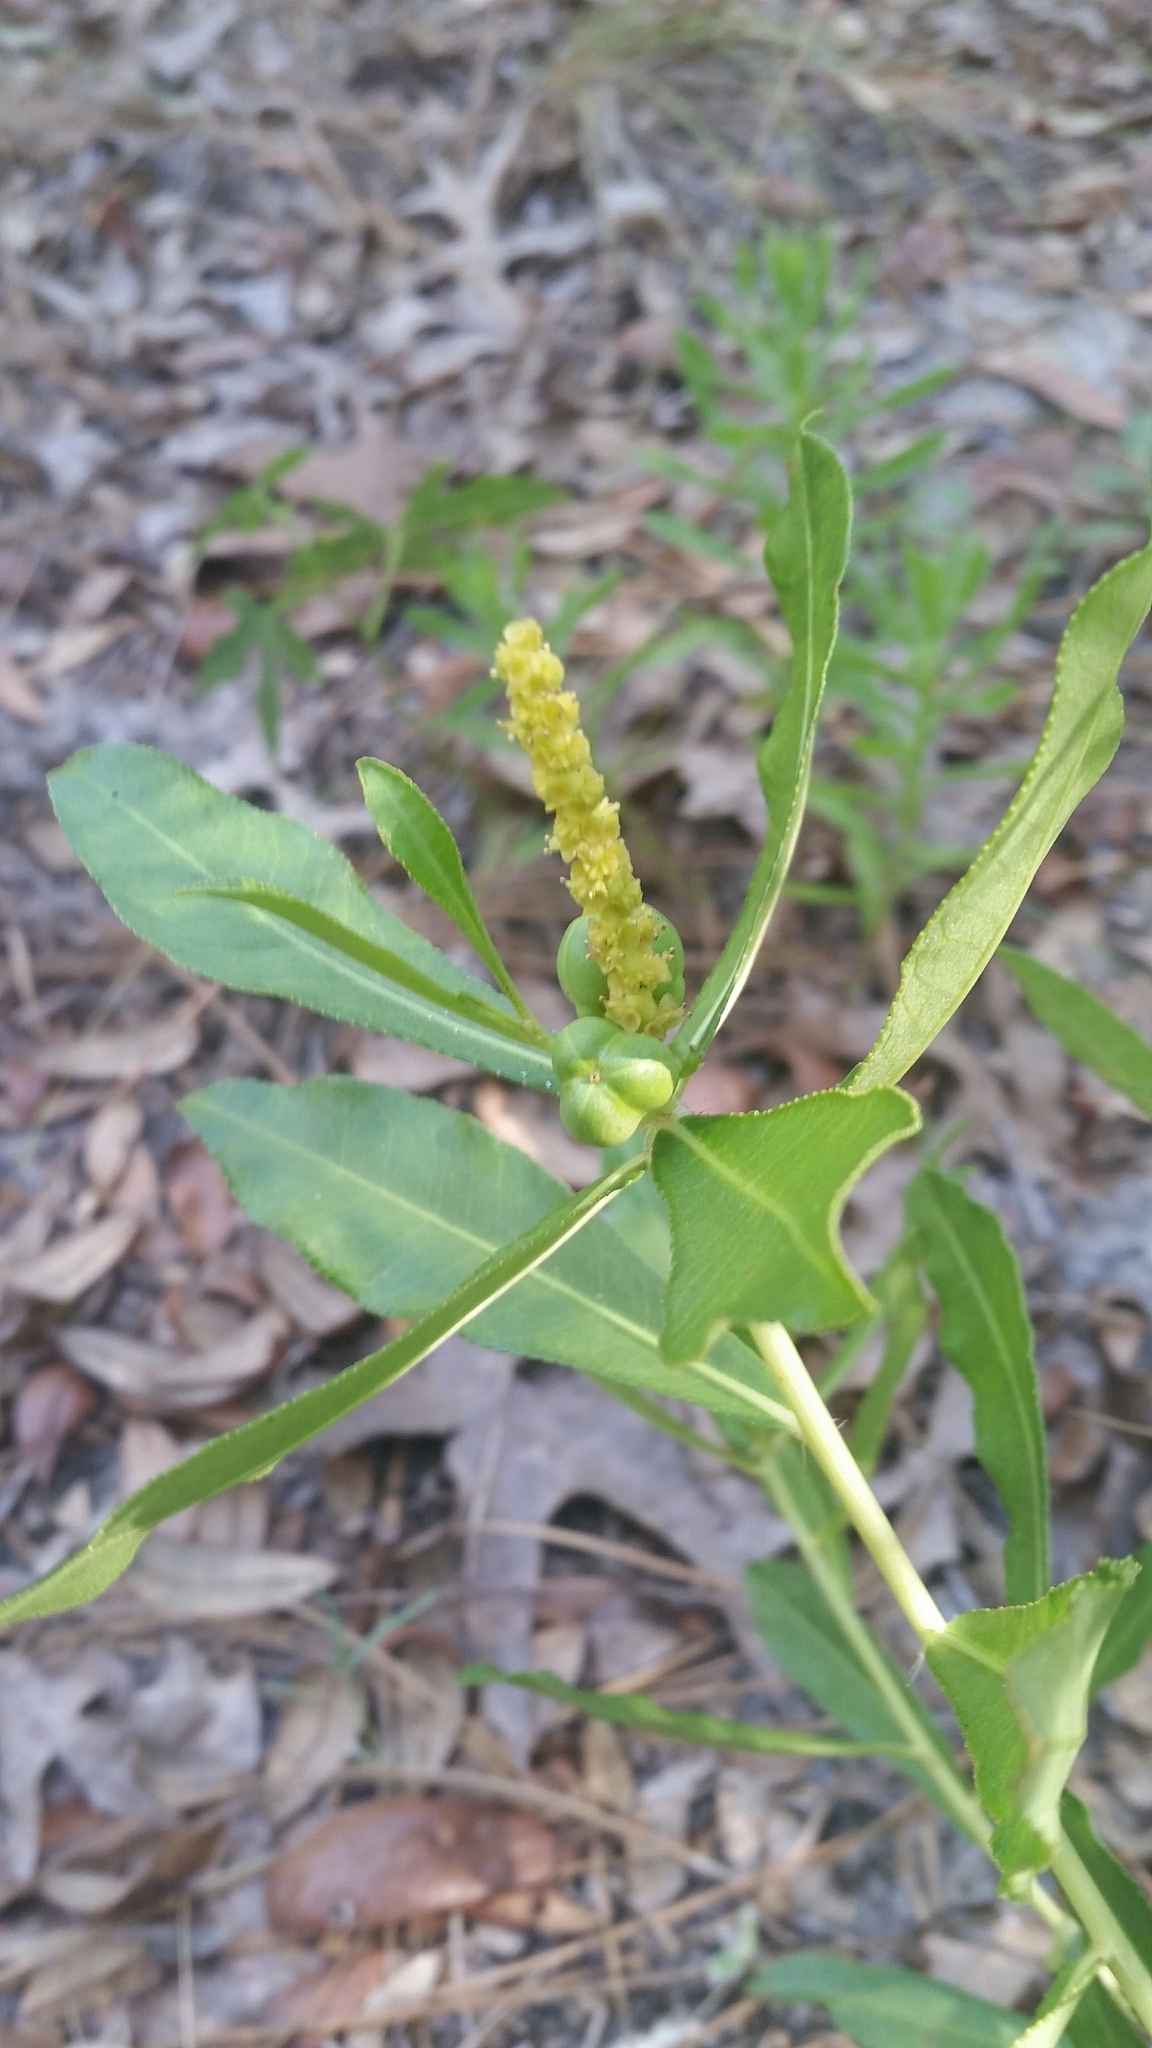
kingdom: Plantae
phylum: Tracheophyta
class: Magnoliopsida
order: Malpighiales
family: Euphorbiaceae
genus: Stillingia
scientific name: Stillingia sylvatica
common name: Queen's-delight
